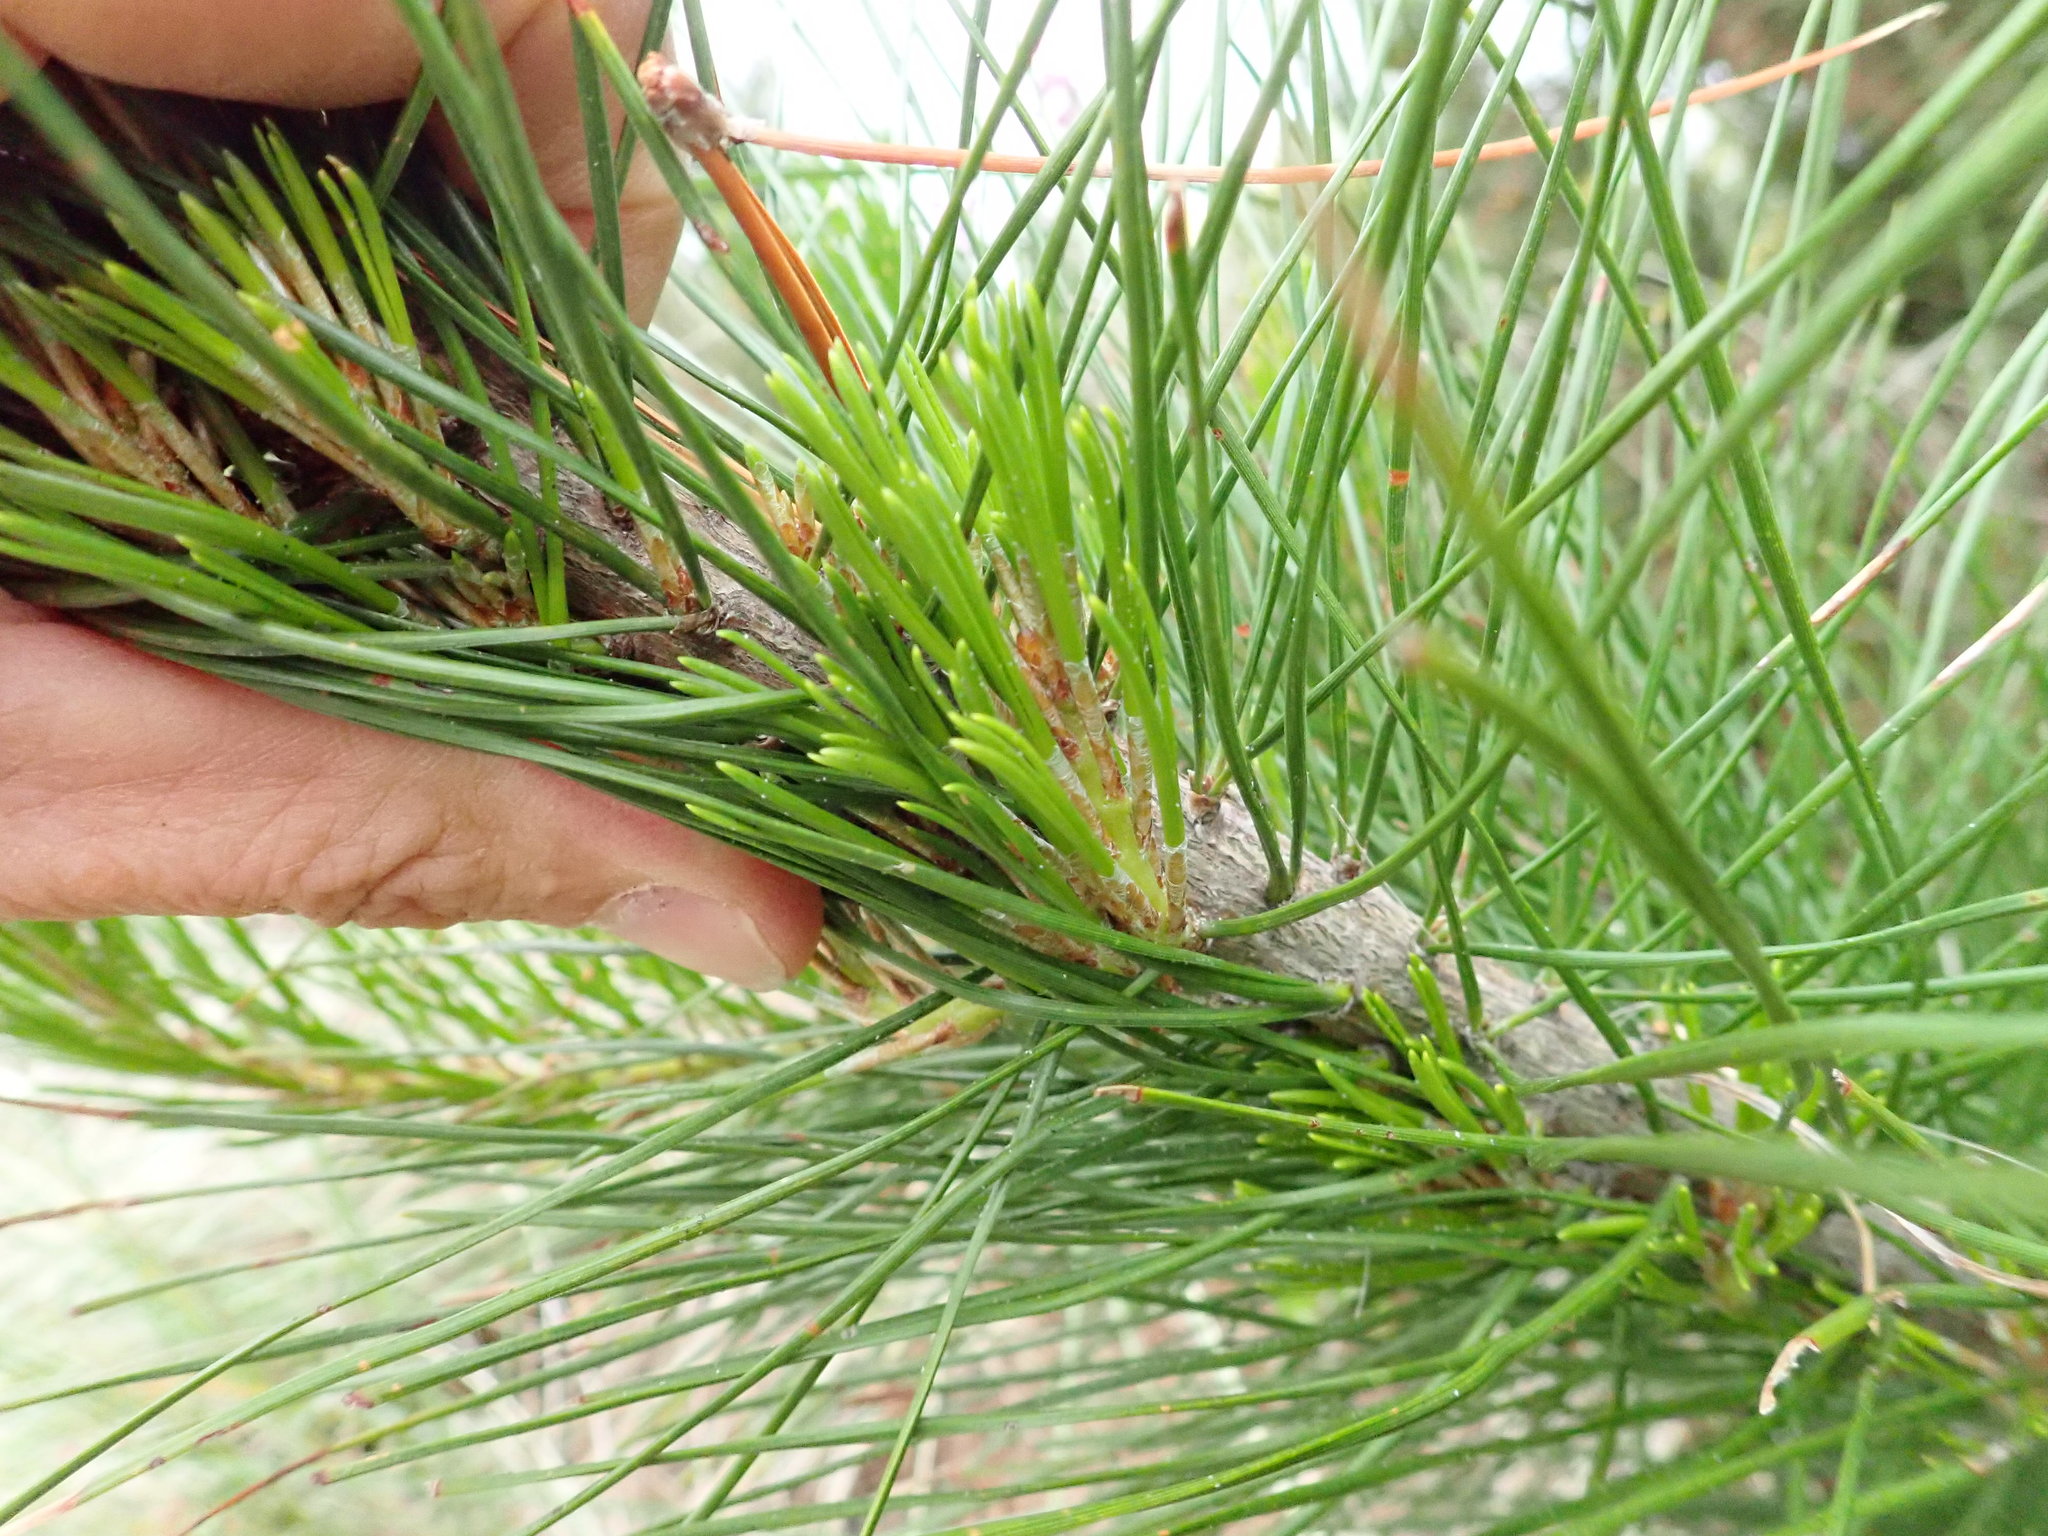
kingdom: Plantae
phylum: Tracheophyta
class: Pinopsida
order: Pinales
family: Pinaceae
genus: Pinus
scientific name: Pinus radiata
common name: Monterey pine
